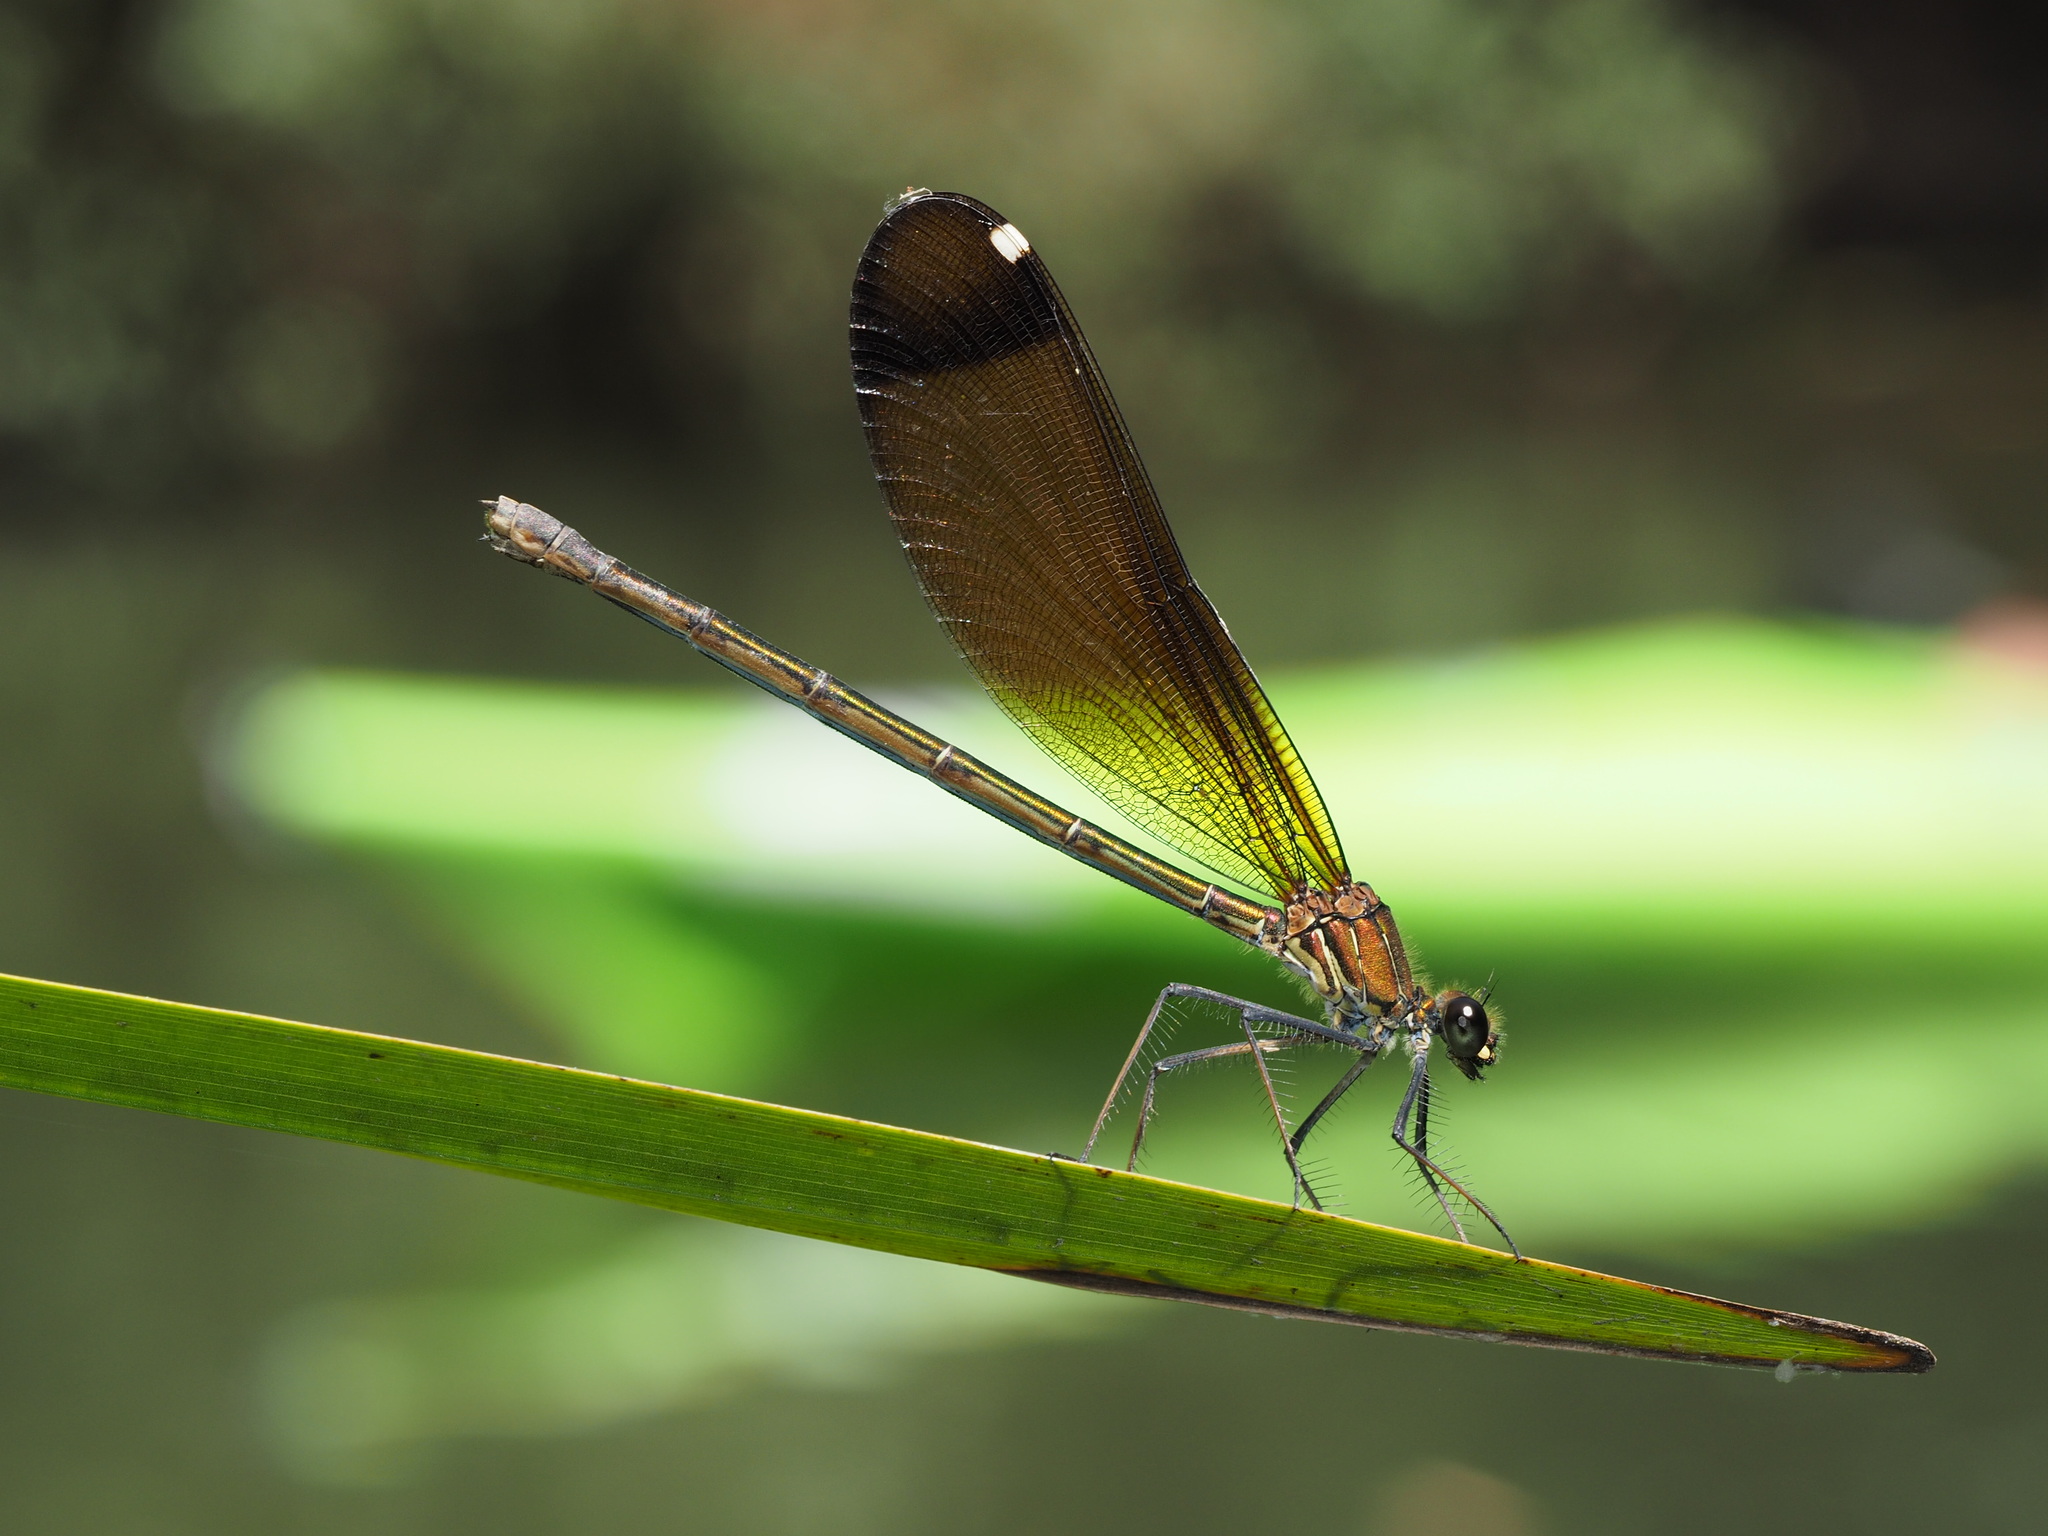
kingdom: Animalia
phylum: Arthropoda
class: Insecta
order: Odonata
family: Calopterygidae
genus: Calopteryx
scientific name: Calopteryx haemorrhoidalis
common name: Copper demoiselle
